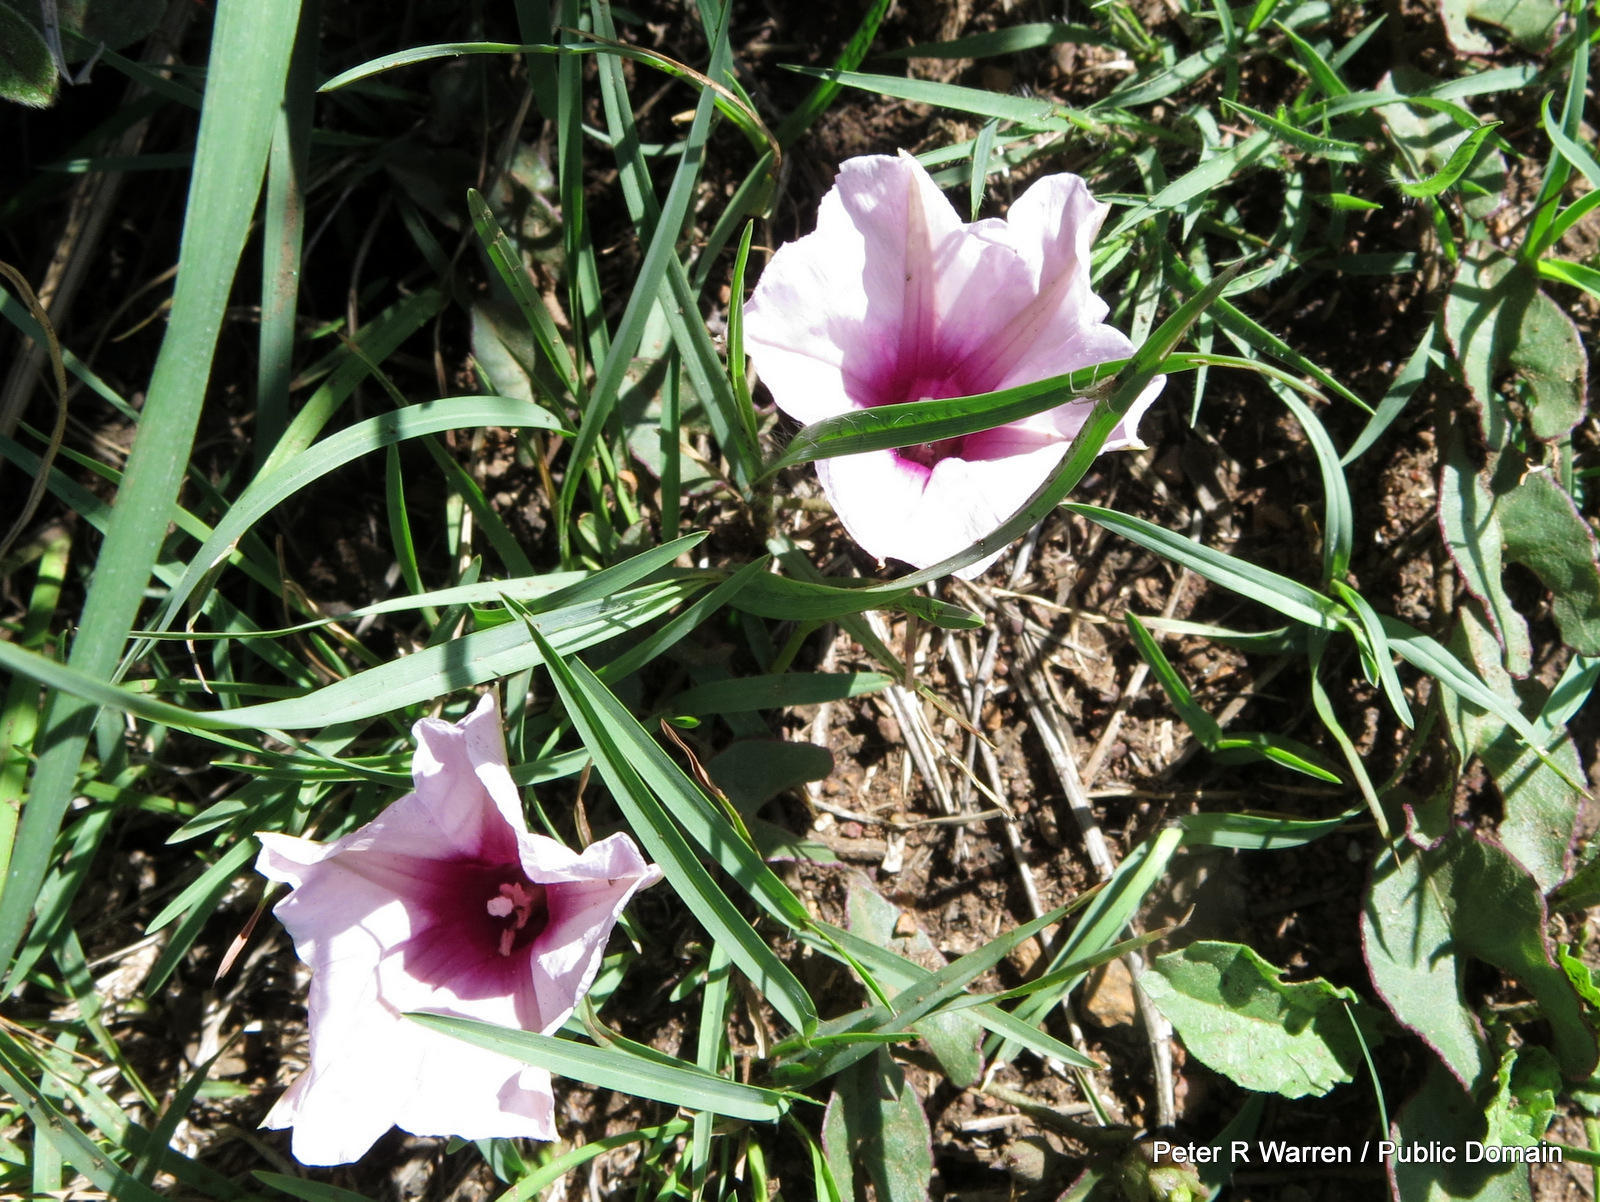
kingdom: Plantae
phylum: Tracheophyta
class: Magnoliopsida
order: Solanales
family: Convolvulaceae
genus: Ipomoea
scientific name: Ipomoea bathycolpos
